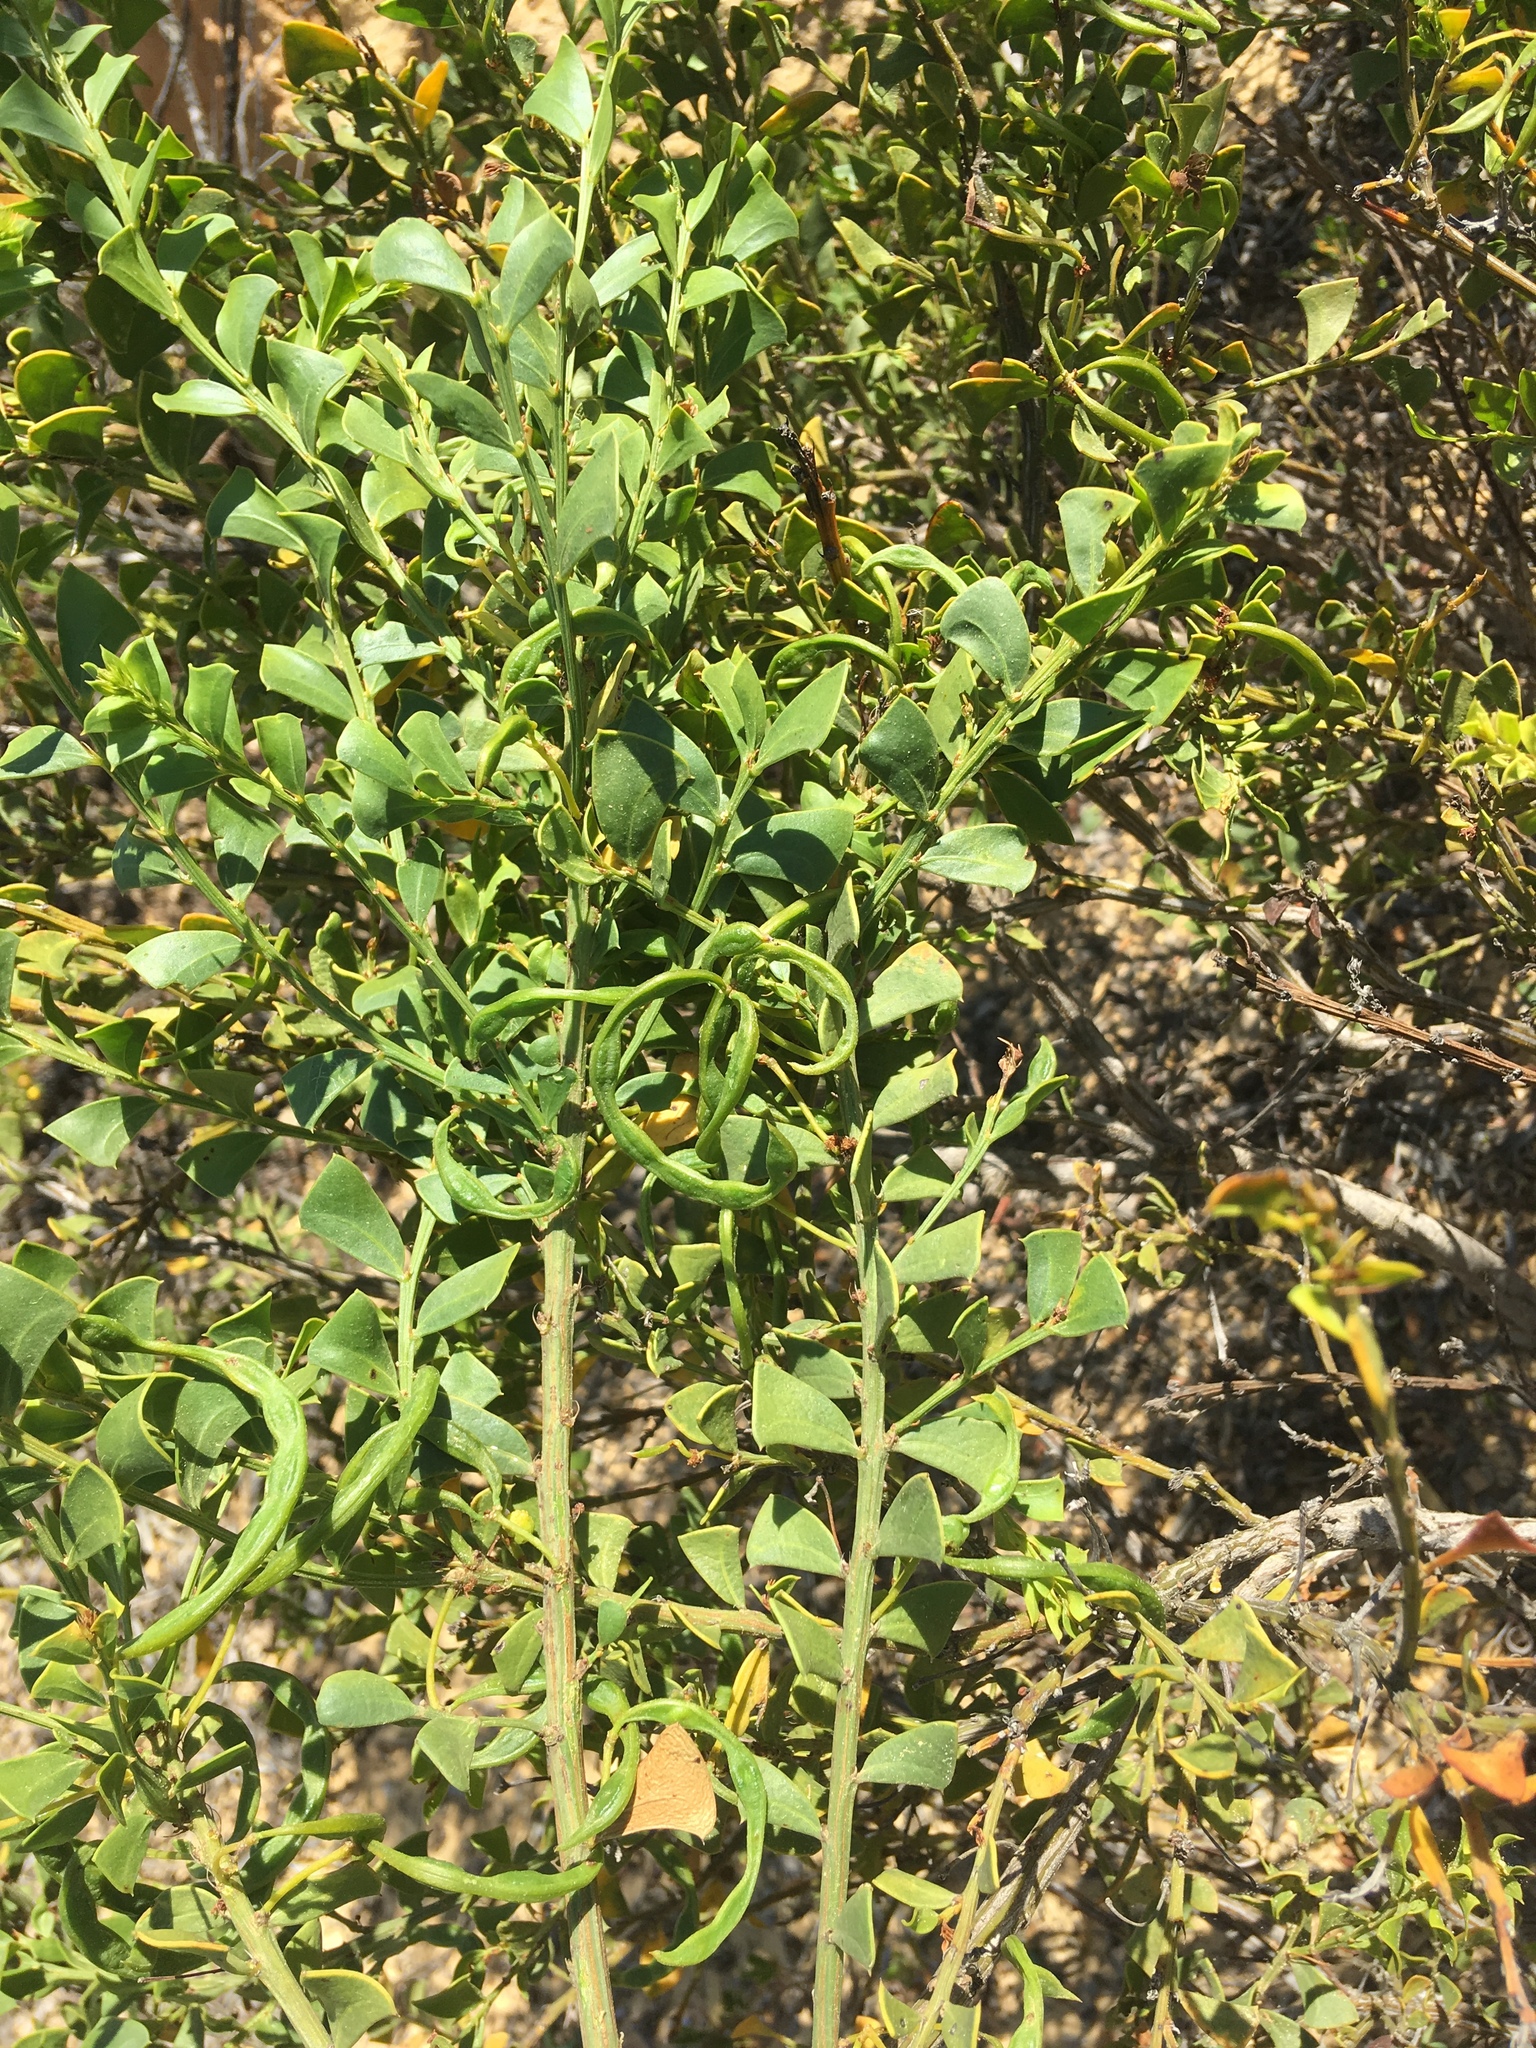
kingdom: Plantae
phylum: Tracheophyta
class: Magnoliopsida
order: Fabales
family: Fabaceae
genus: Acacia
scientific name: Acacia truncata
